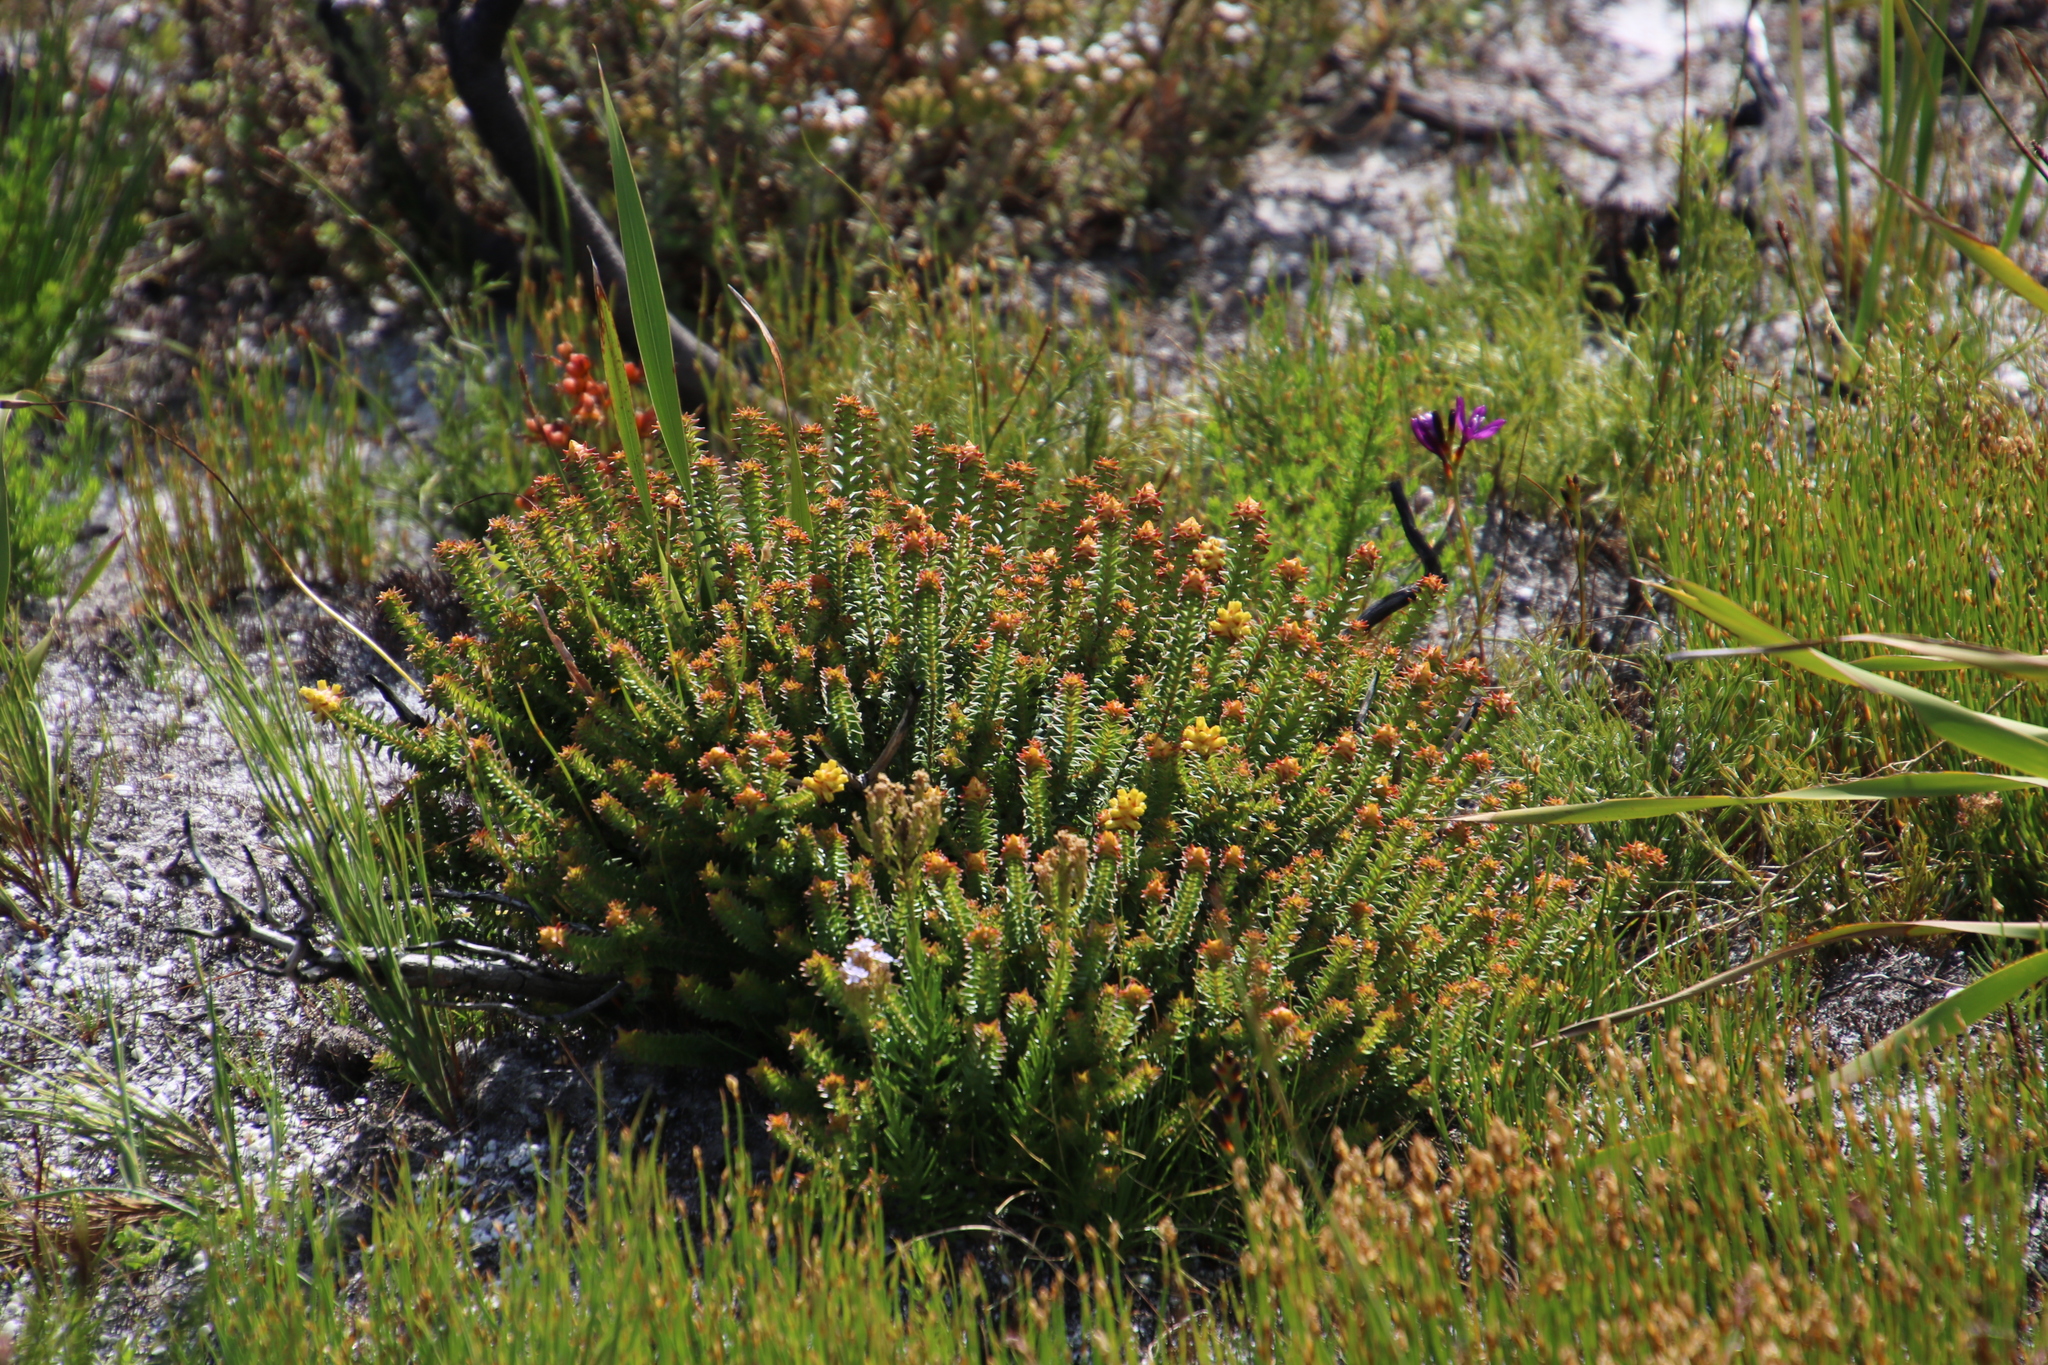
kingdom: Plantae
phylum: Tracheophyta
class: Magnoliopsida
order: Myrtales
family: Penaeaceae
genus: Penaea
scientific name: Penaea mucronata
